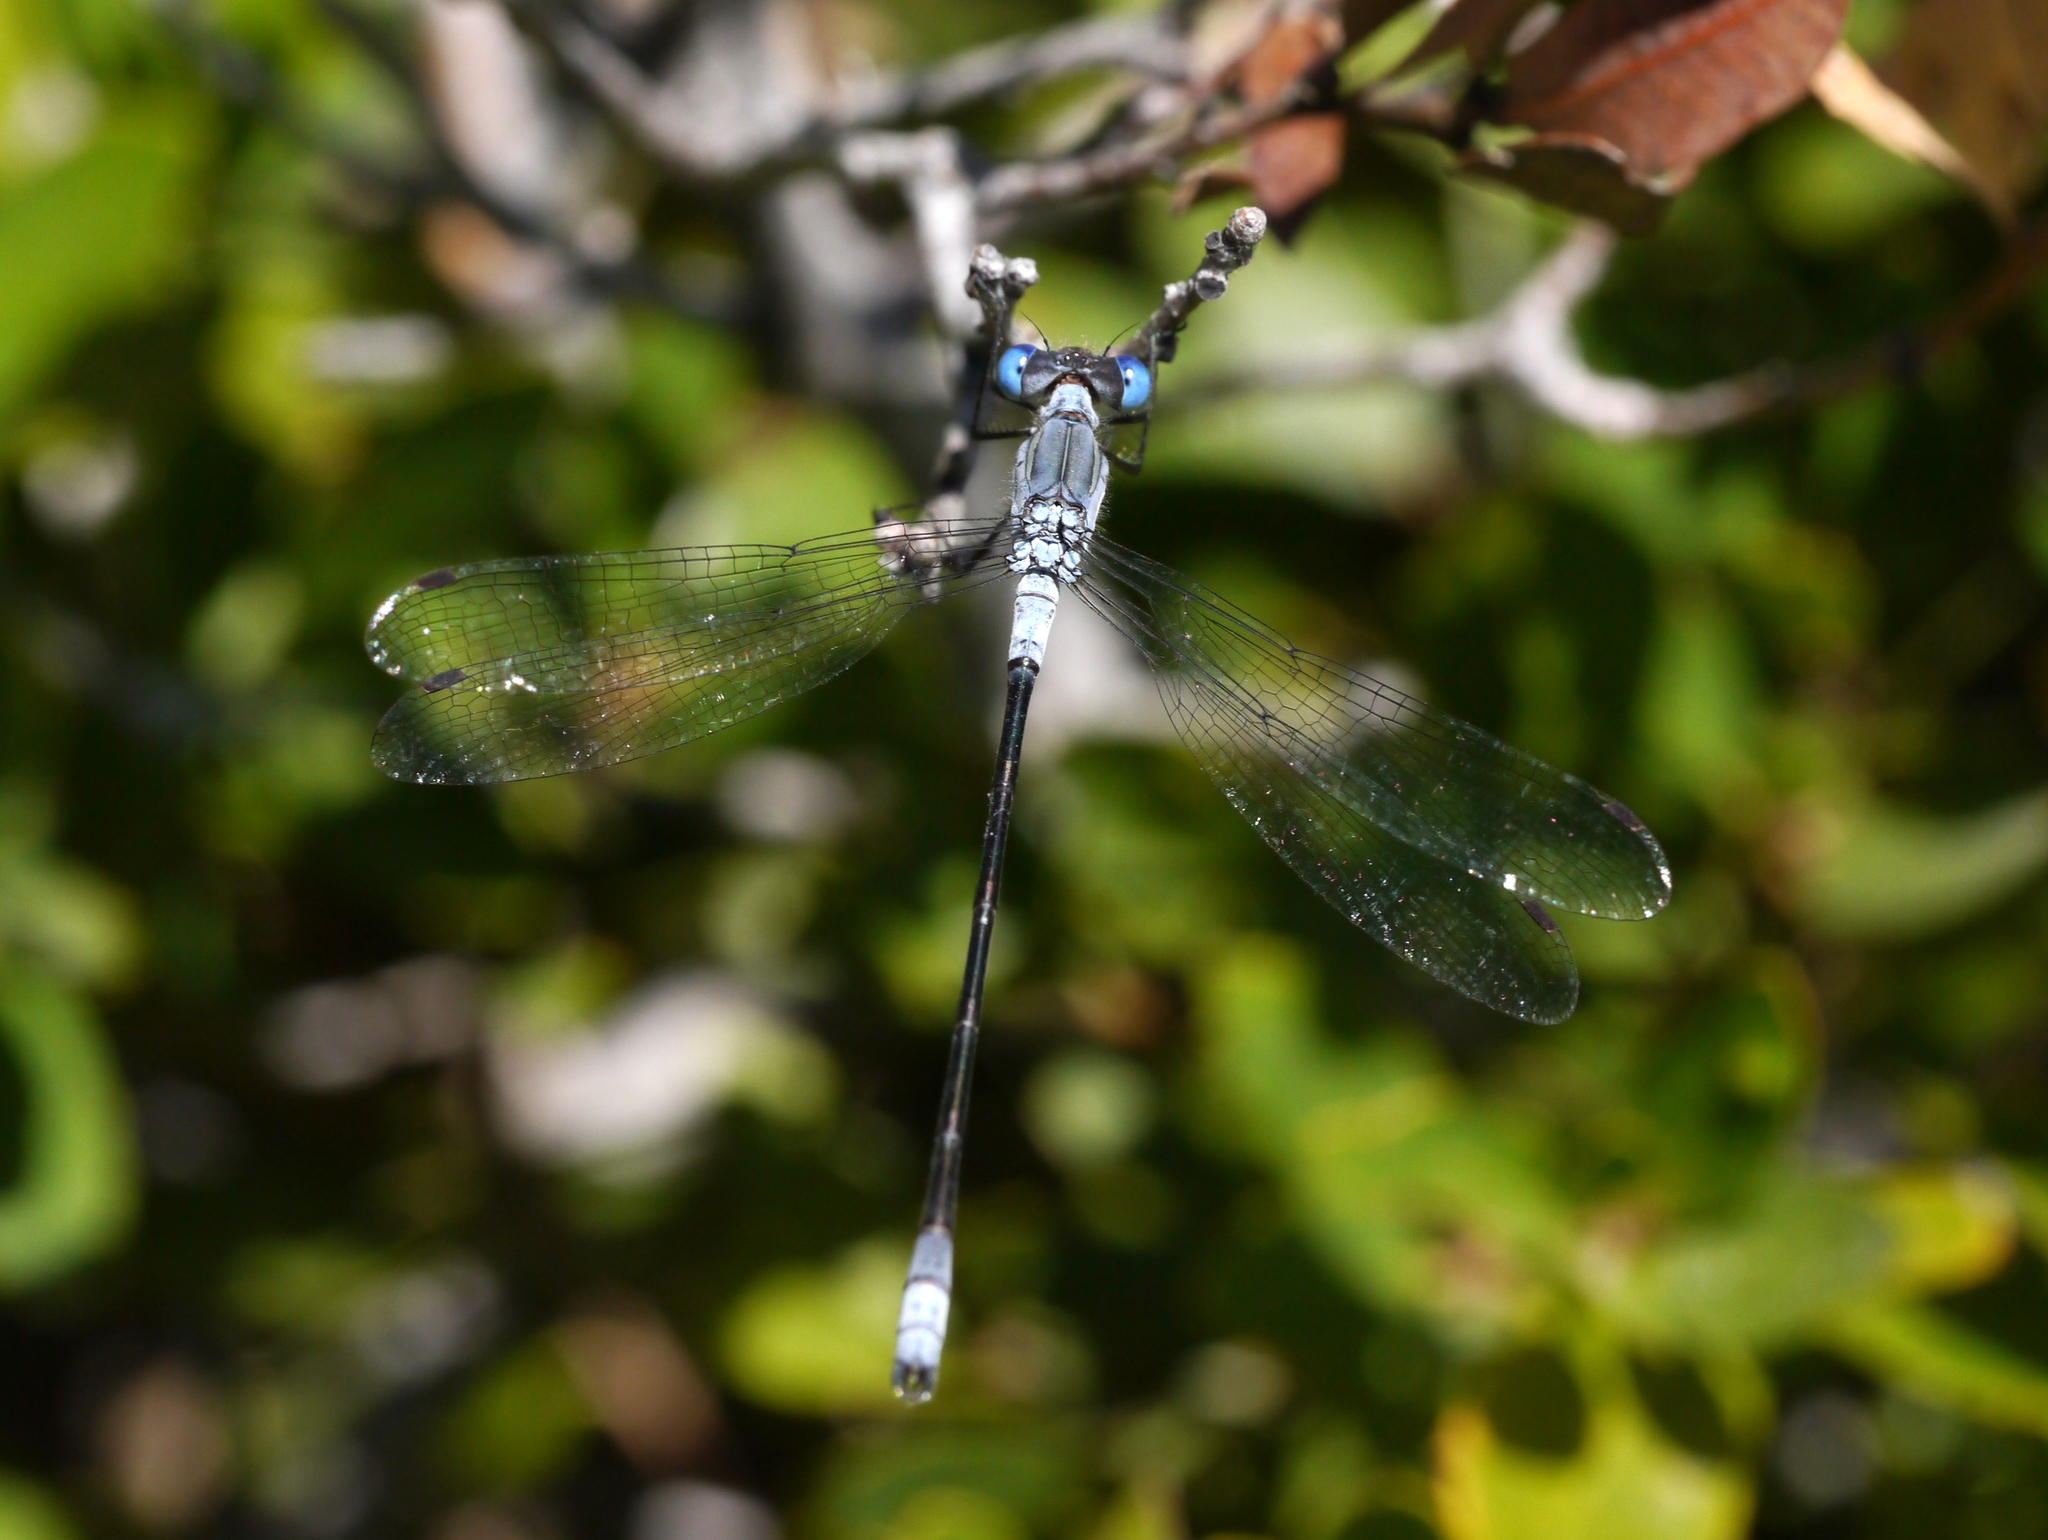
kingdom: Animalia
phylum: Arthropoda
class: Insecta
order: Odonata
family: Lestidae
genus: Lestes
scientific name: Lestes disjunctus
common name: Northern spreadwing
